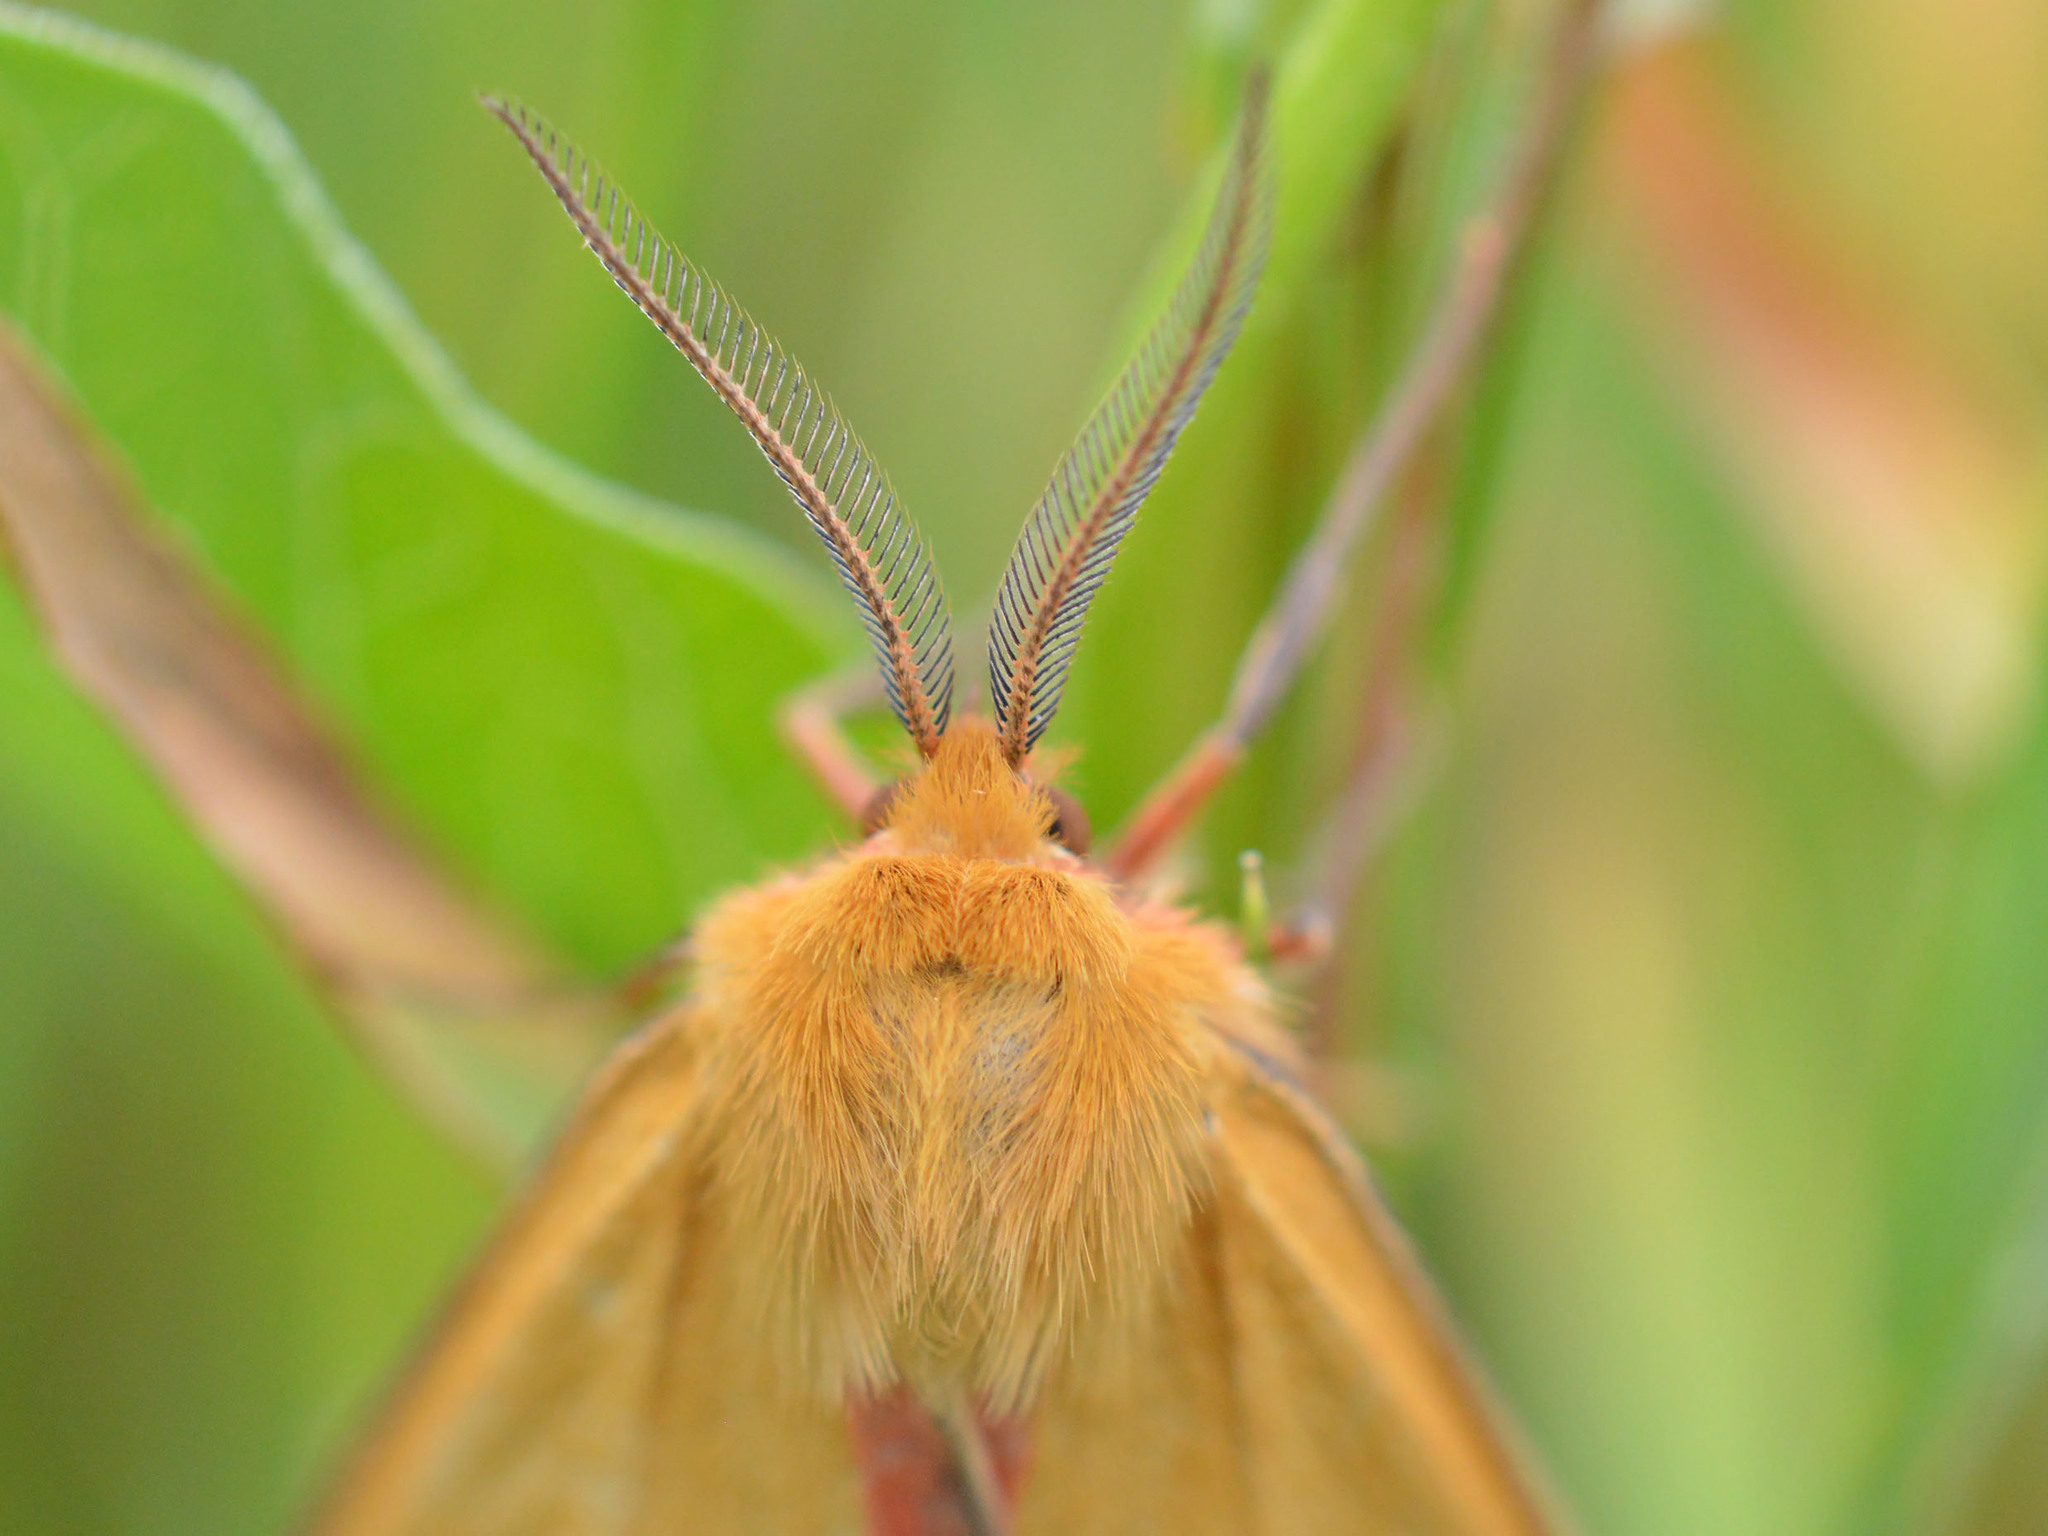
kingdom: Animalia
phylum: Arthropoda
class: Insecta
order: Lepidoptera
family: Erebidae
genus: Diacrisia
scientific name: Diacrisia sannio
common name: Clouded buff
